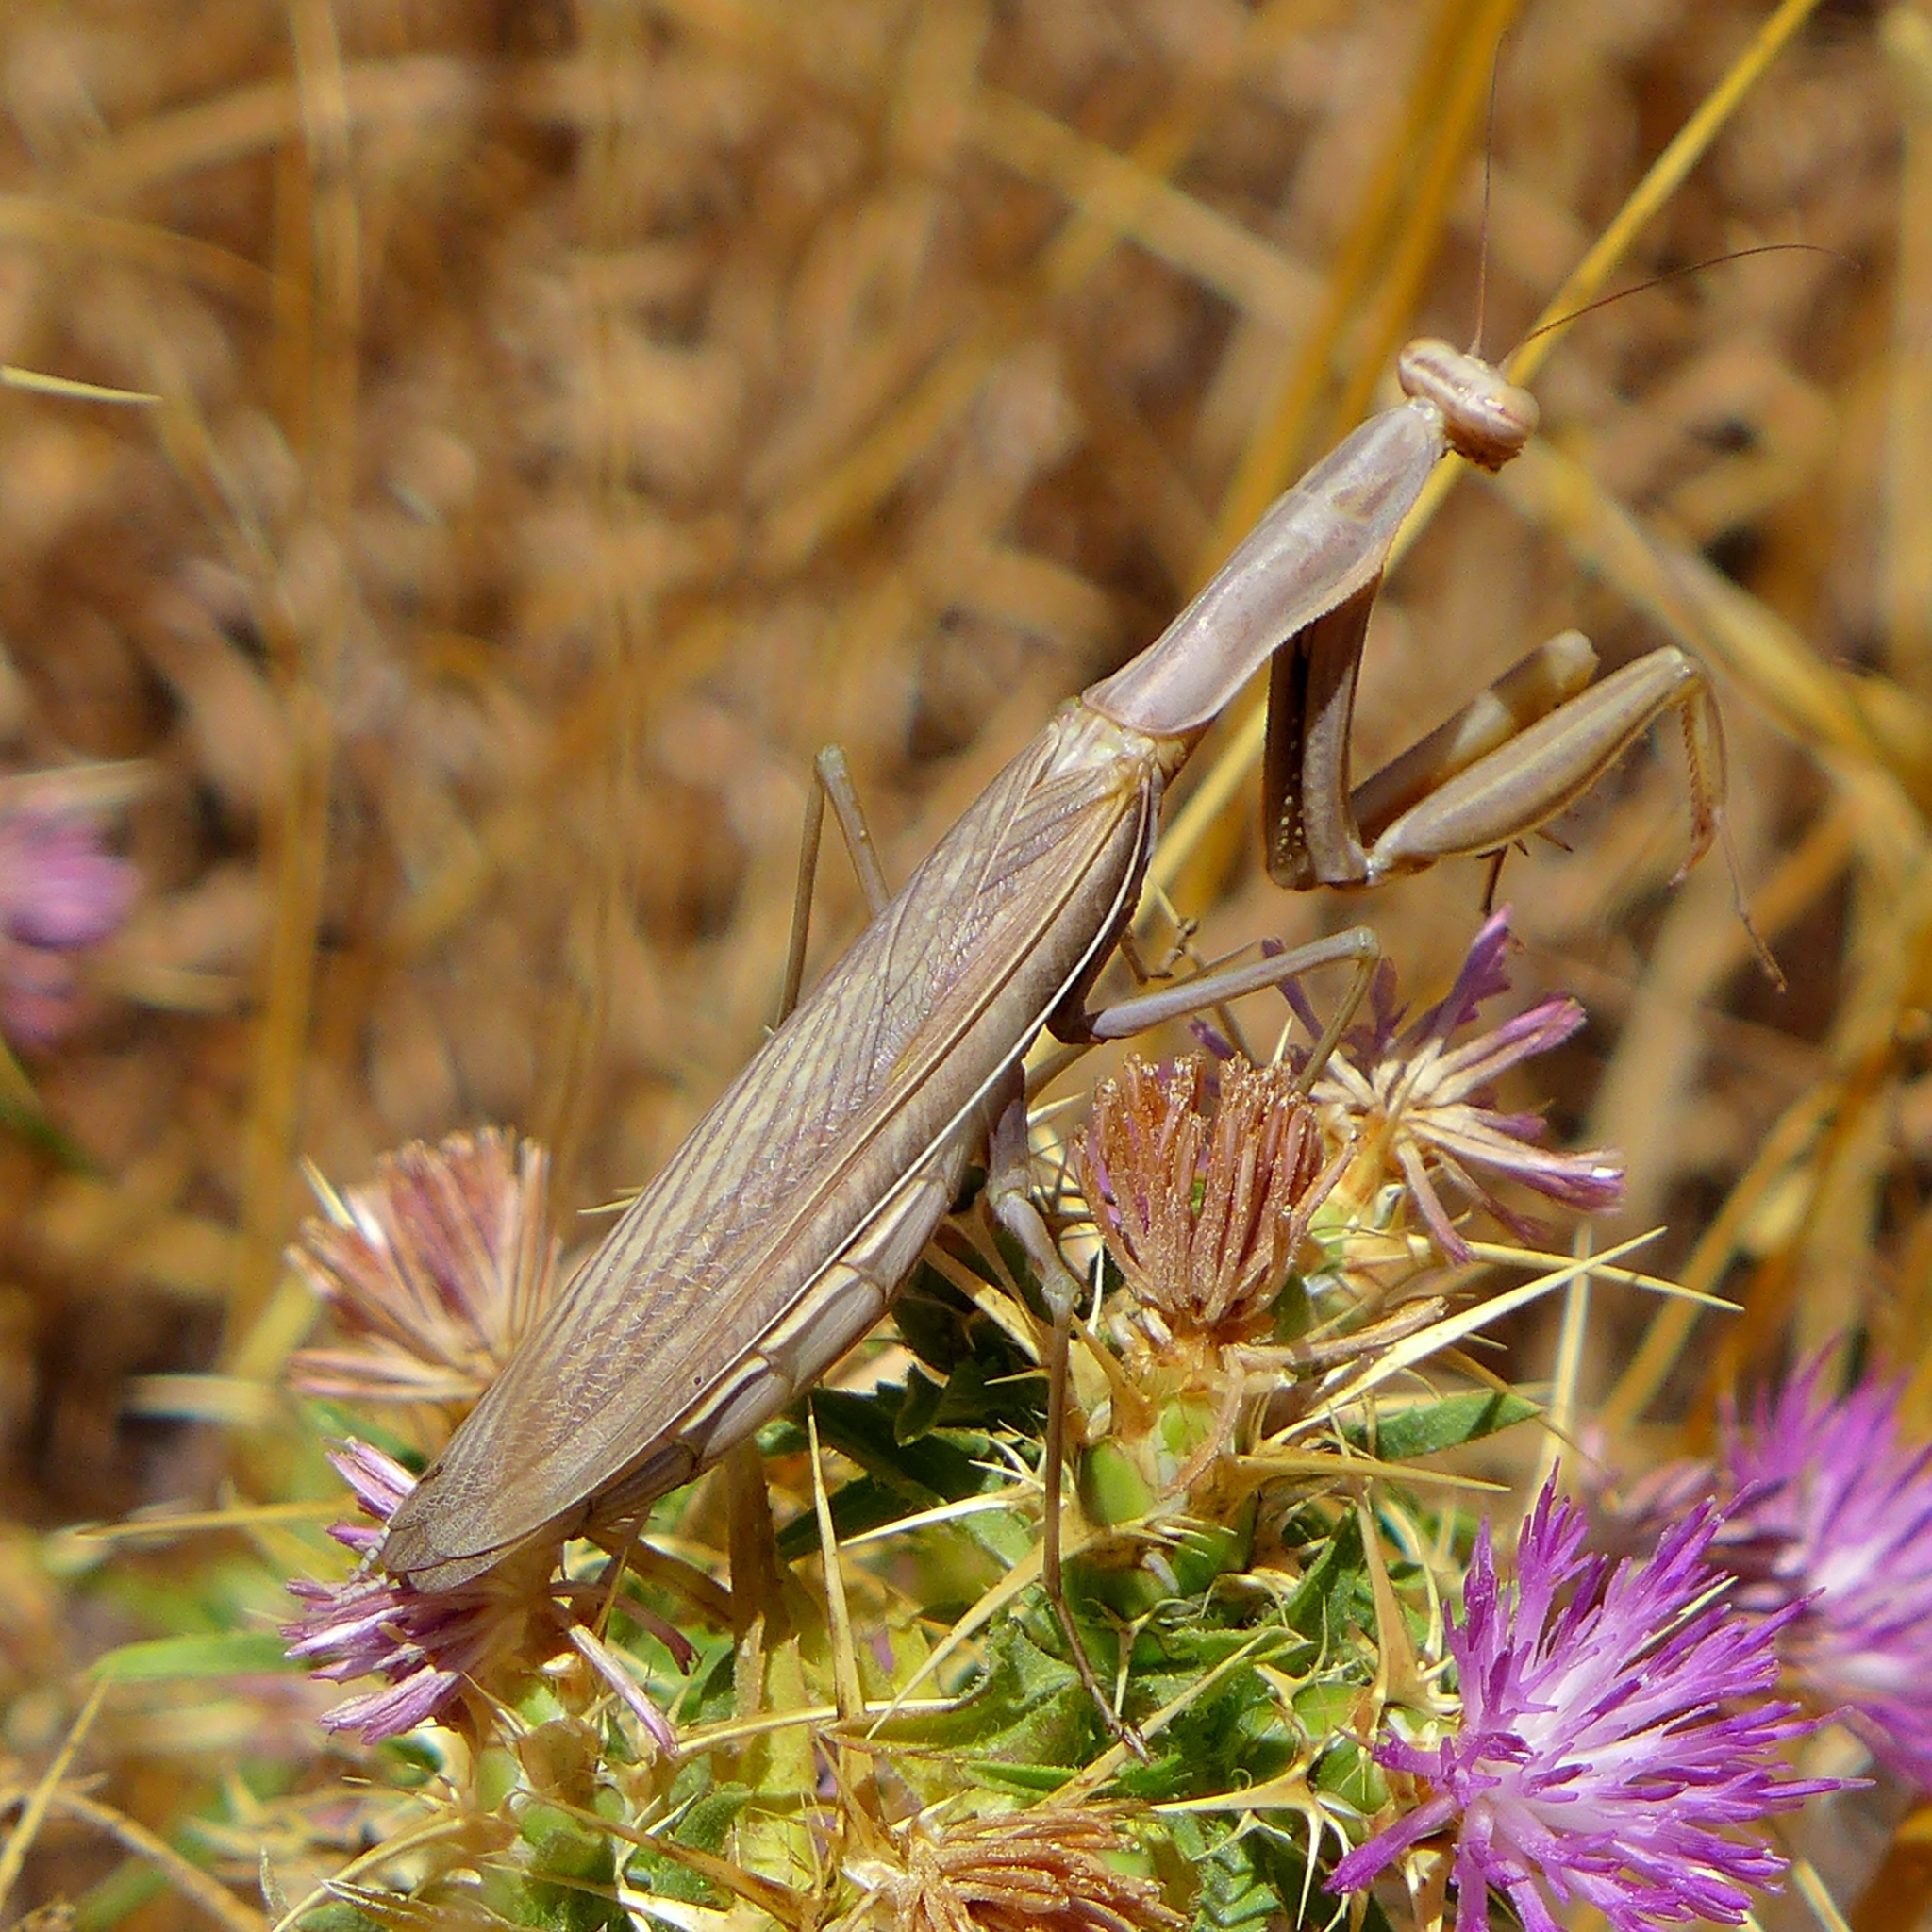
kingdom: Animalia
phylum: Arthropoda
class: Insecta
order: Mantodea
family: Mantidae
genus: Mantis
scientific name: Mantis religiosa
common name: Praying mantis
